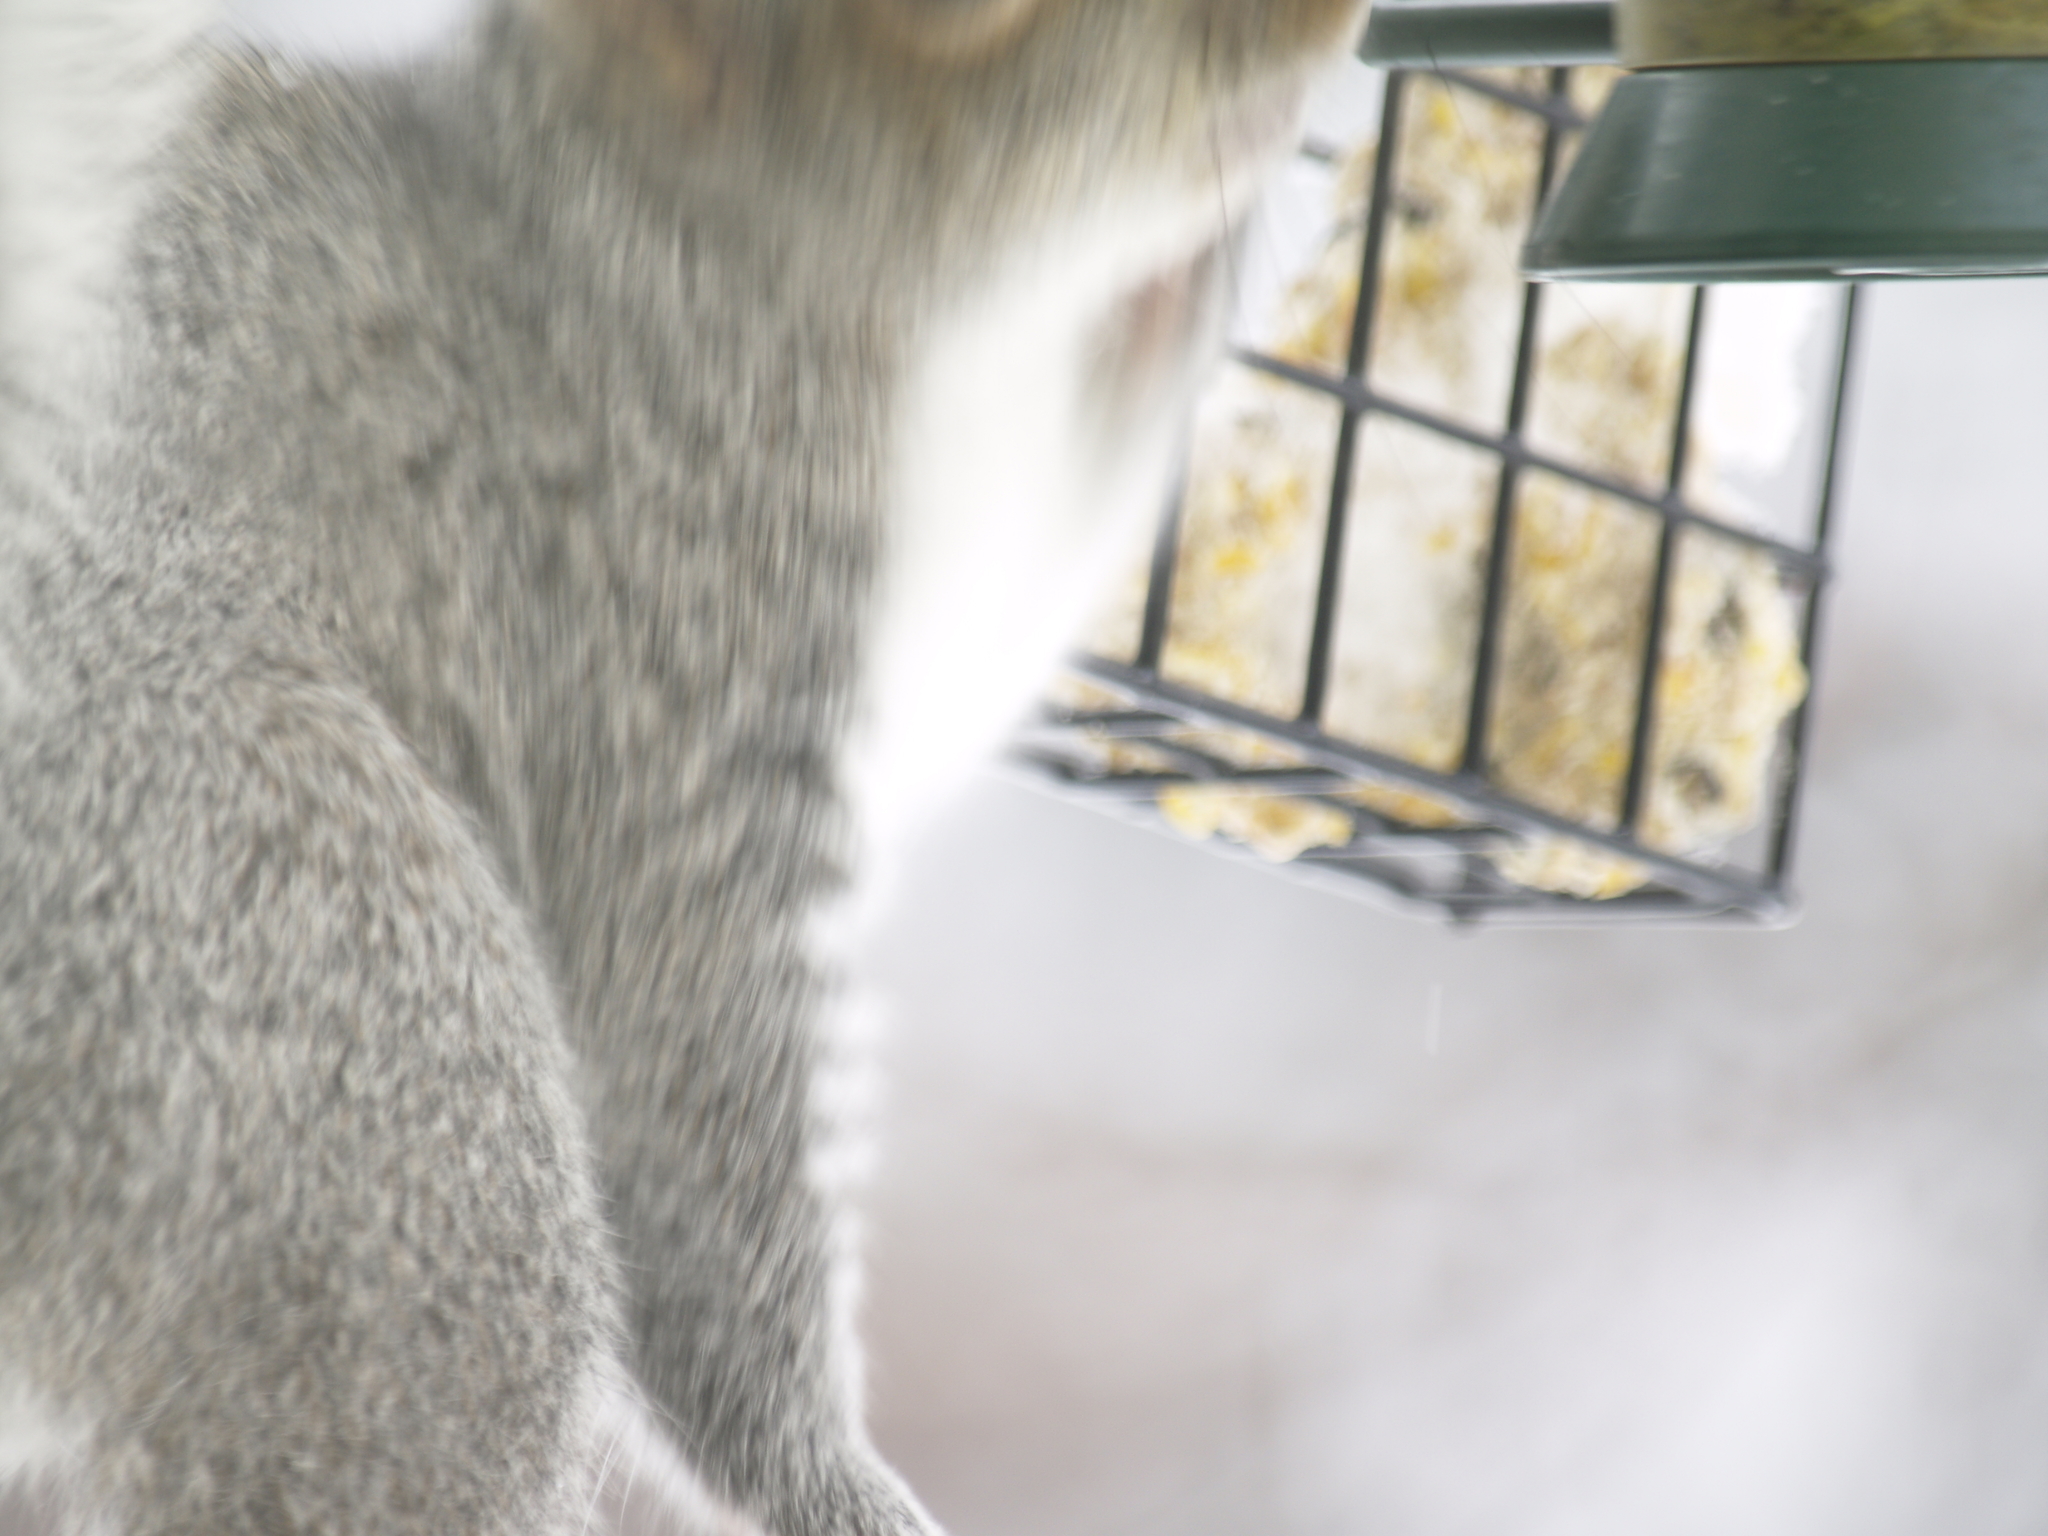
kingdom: Animalia
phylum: Chordata
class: Mammalia
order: Rodentia
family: Sciuridae
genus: Sciurus
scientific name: Sciurus carolinensis
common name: Eastern gray squirrel
